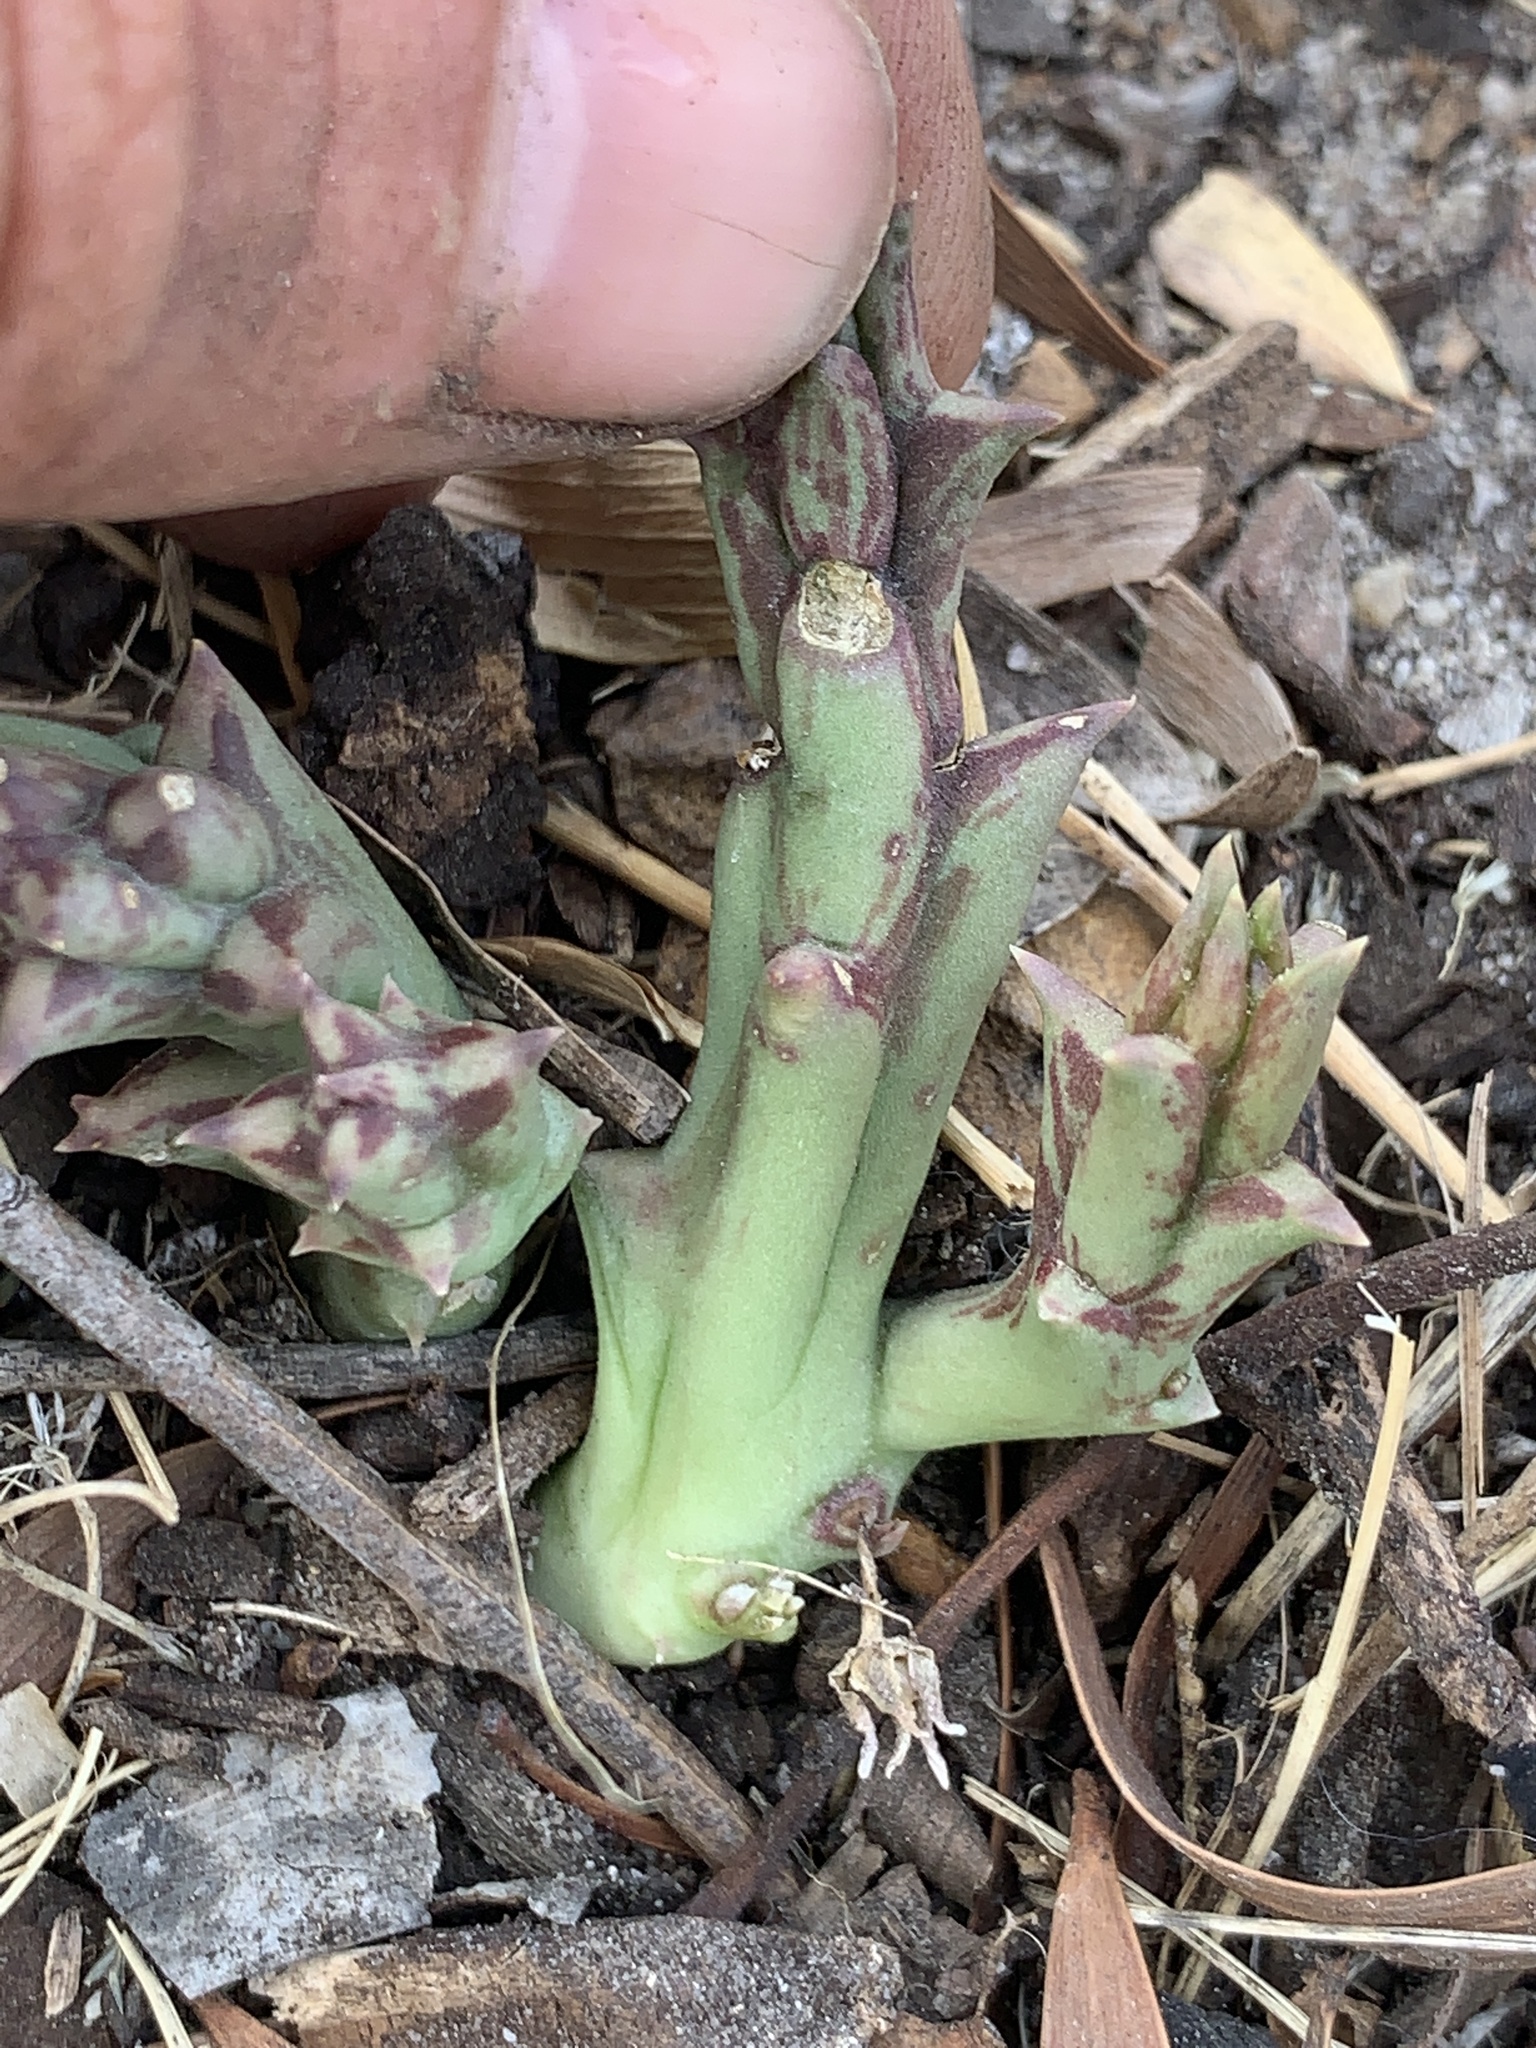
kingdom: Plantae
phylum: Tracheophyta
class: Magnoliopsida
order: Gentianales
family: Apocynaceae
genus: Ceropegia
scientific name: Ceropegia mixta
